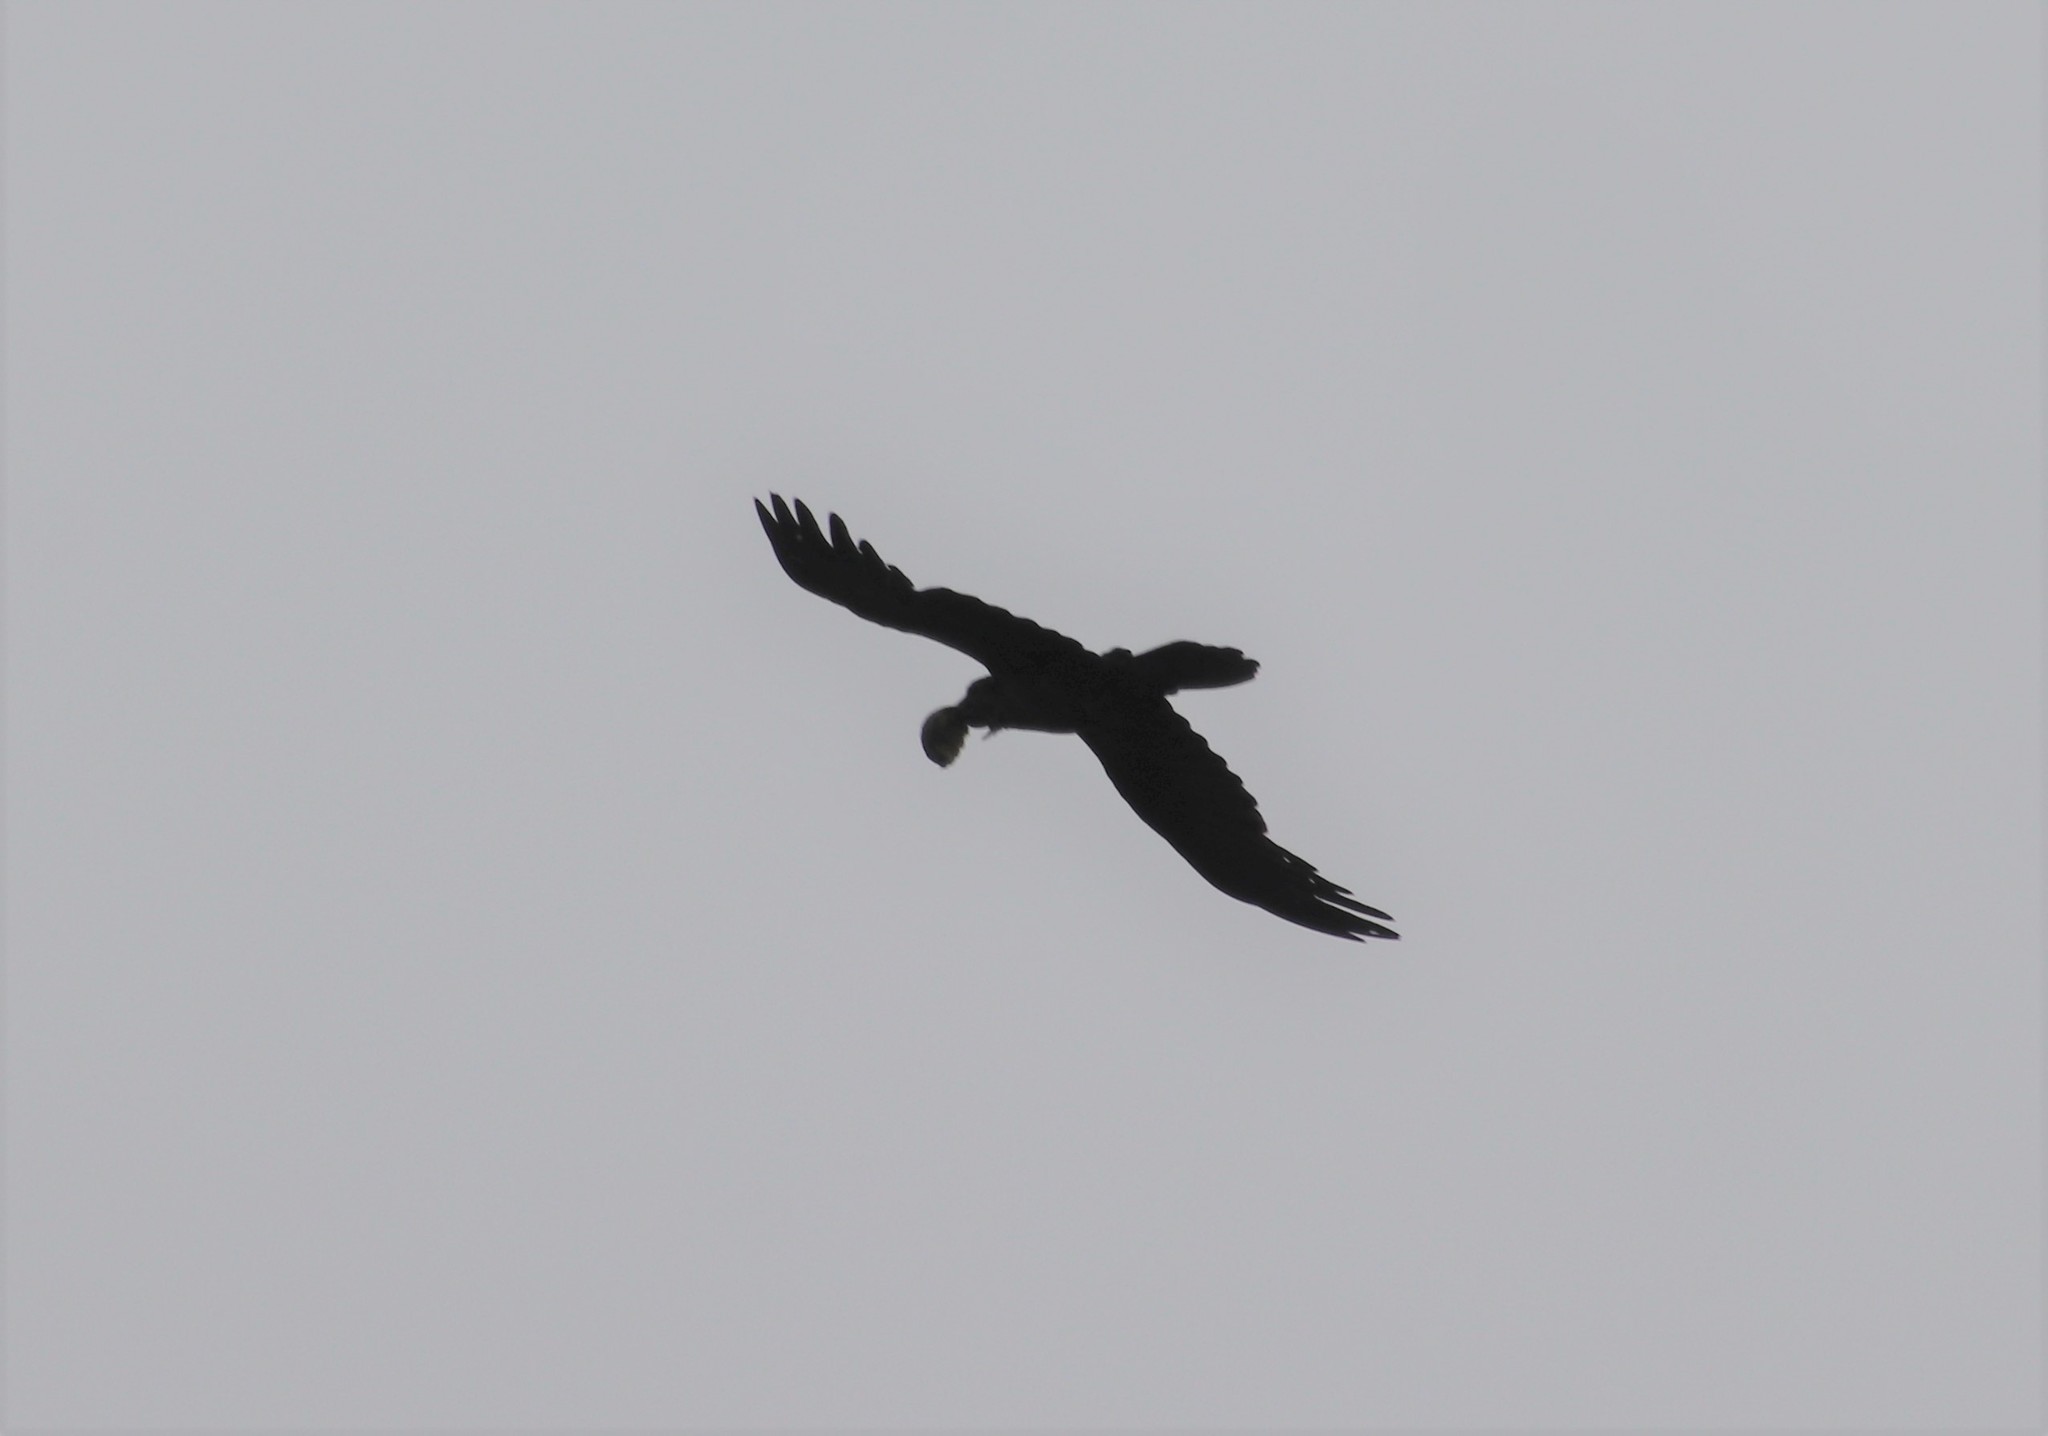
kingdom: Animalia
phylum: Chordata
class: Aves
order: Passeriformes
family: Corvidae
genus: Corvus
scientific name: Corvus corax
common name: Common raven
